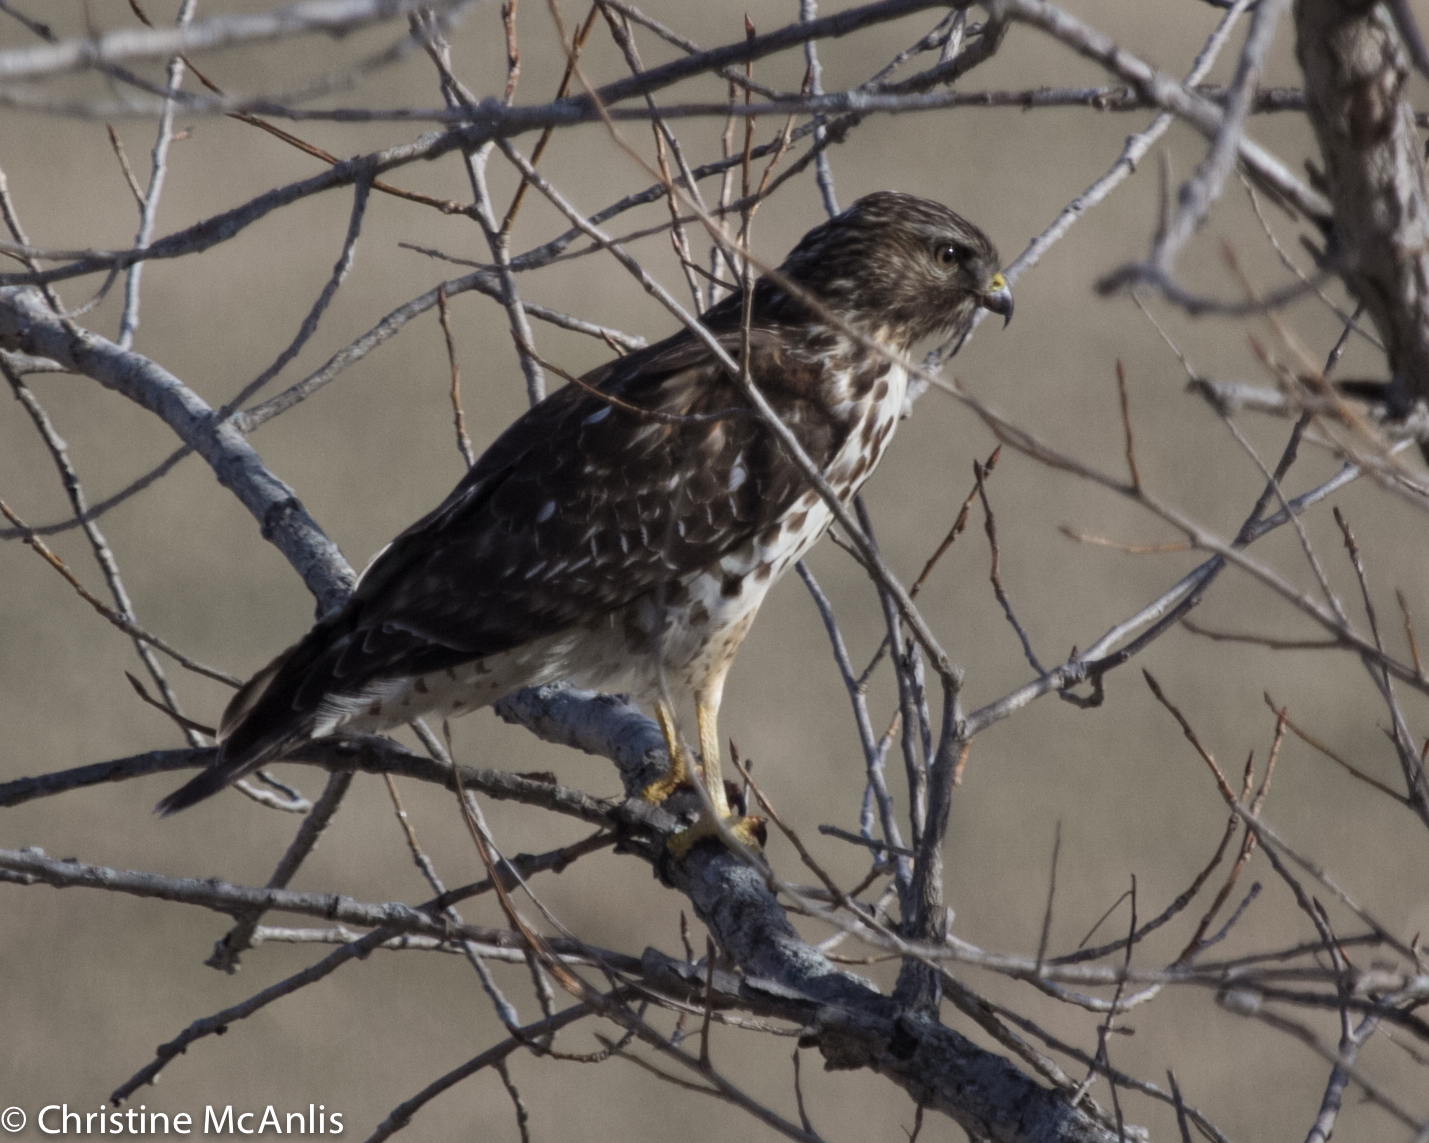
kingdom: Animalia
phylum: Chordata
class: Aves
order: Accipitriformes
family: Accipitridae
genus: Buteo
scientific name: Buteo lineatus
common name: Red-shouldered hawk
